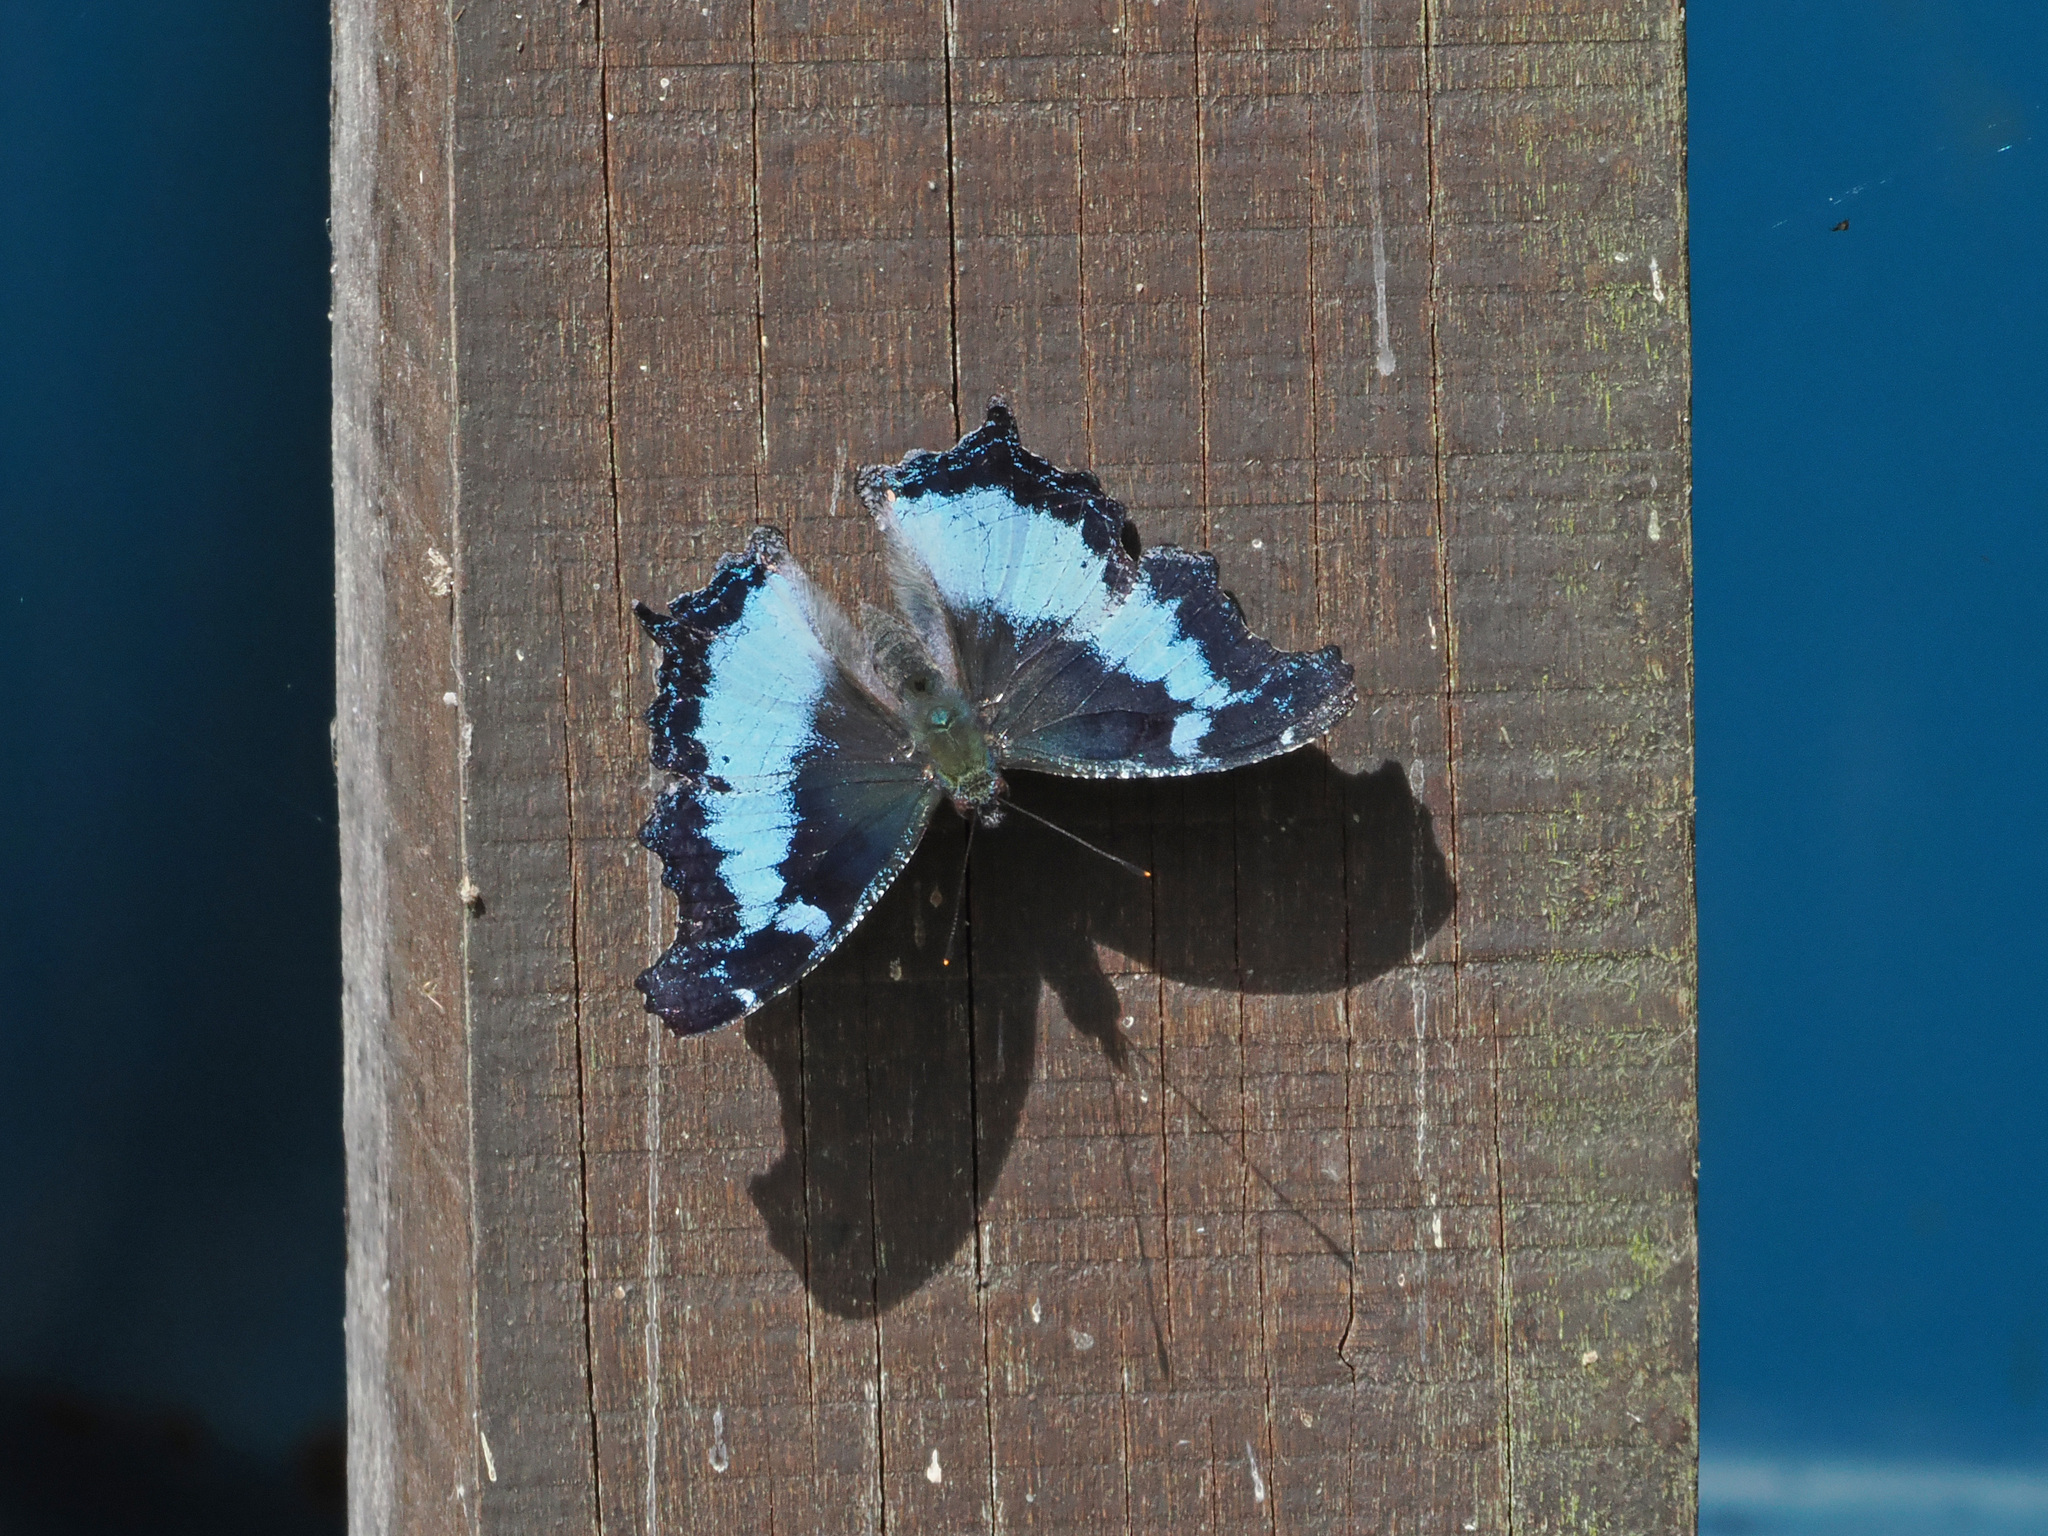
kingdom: Animalia
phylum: Arthropoda
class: Insecta
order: Lepidoptera
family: Nymphalidae
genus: Vanessa
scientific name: Vanessa Kaniska canace
